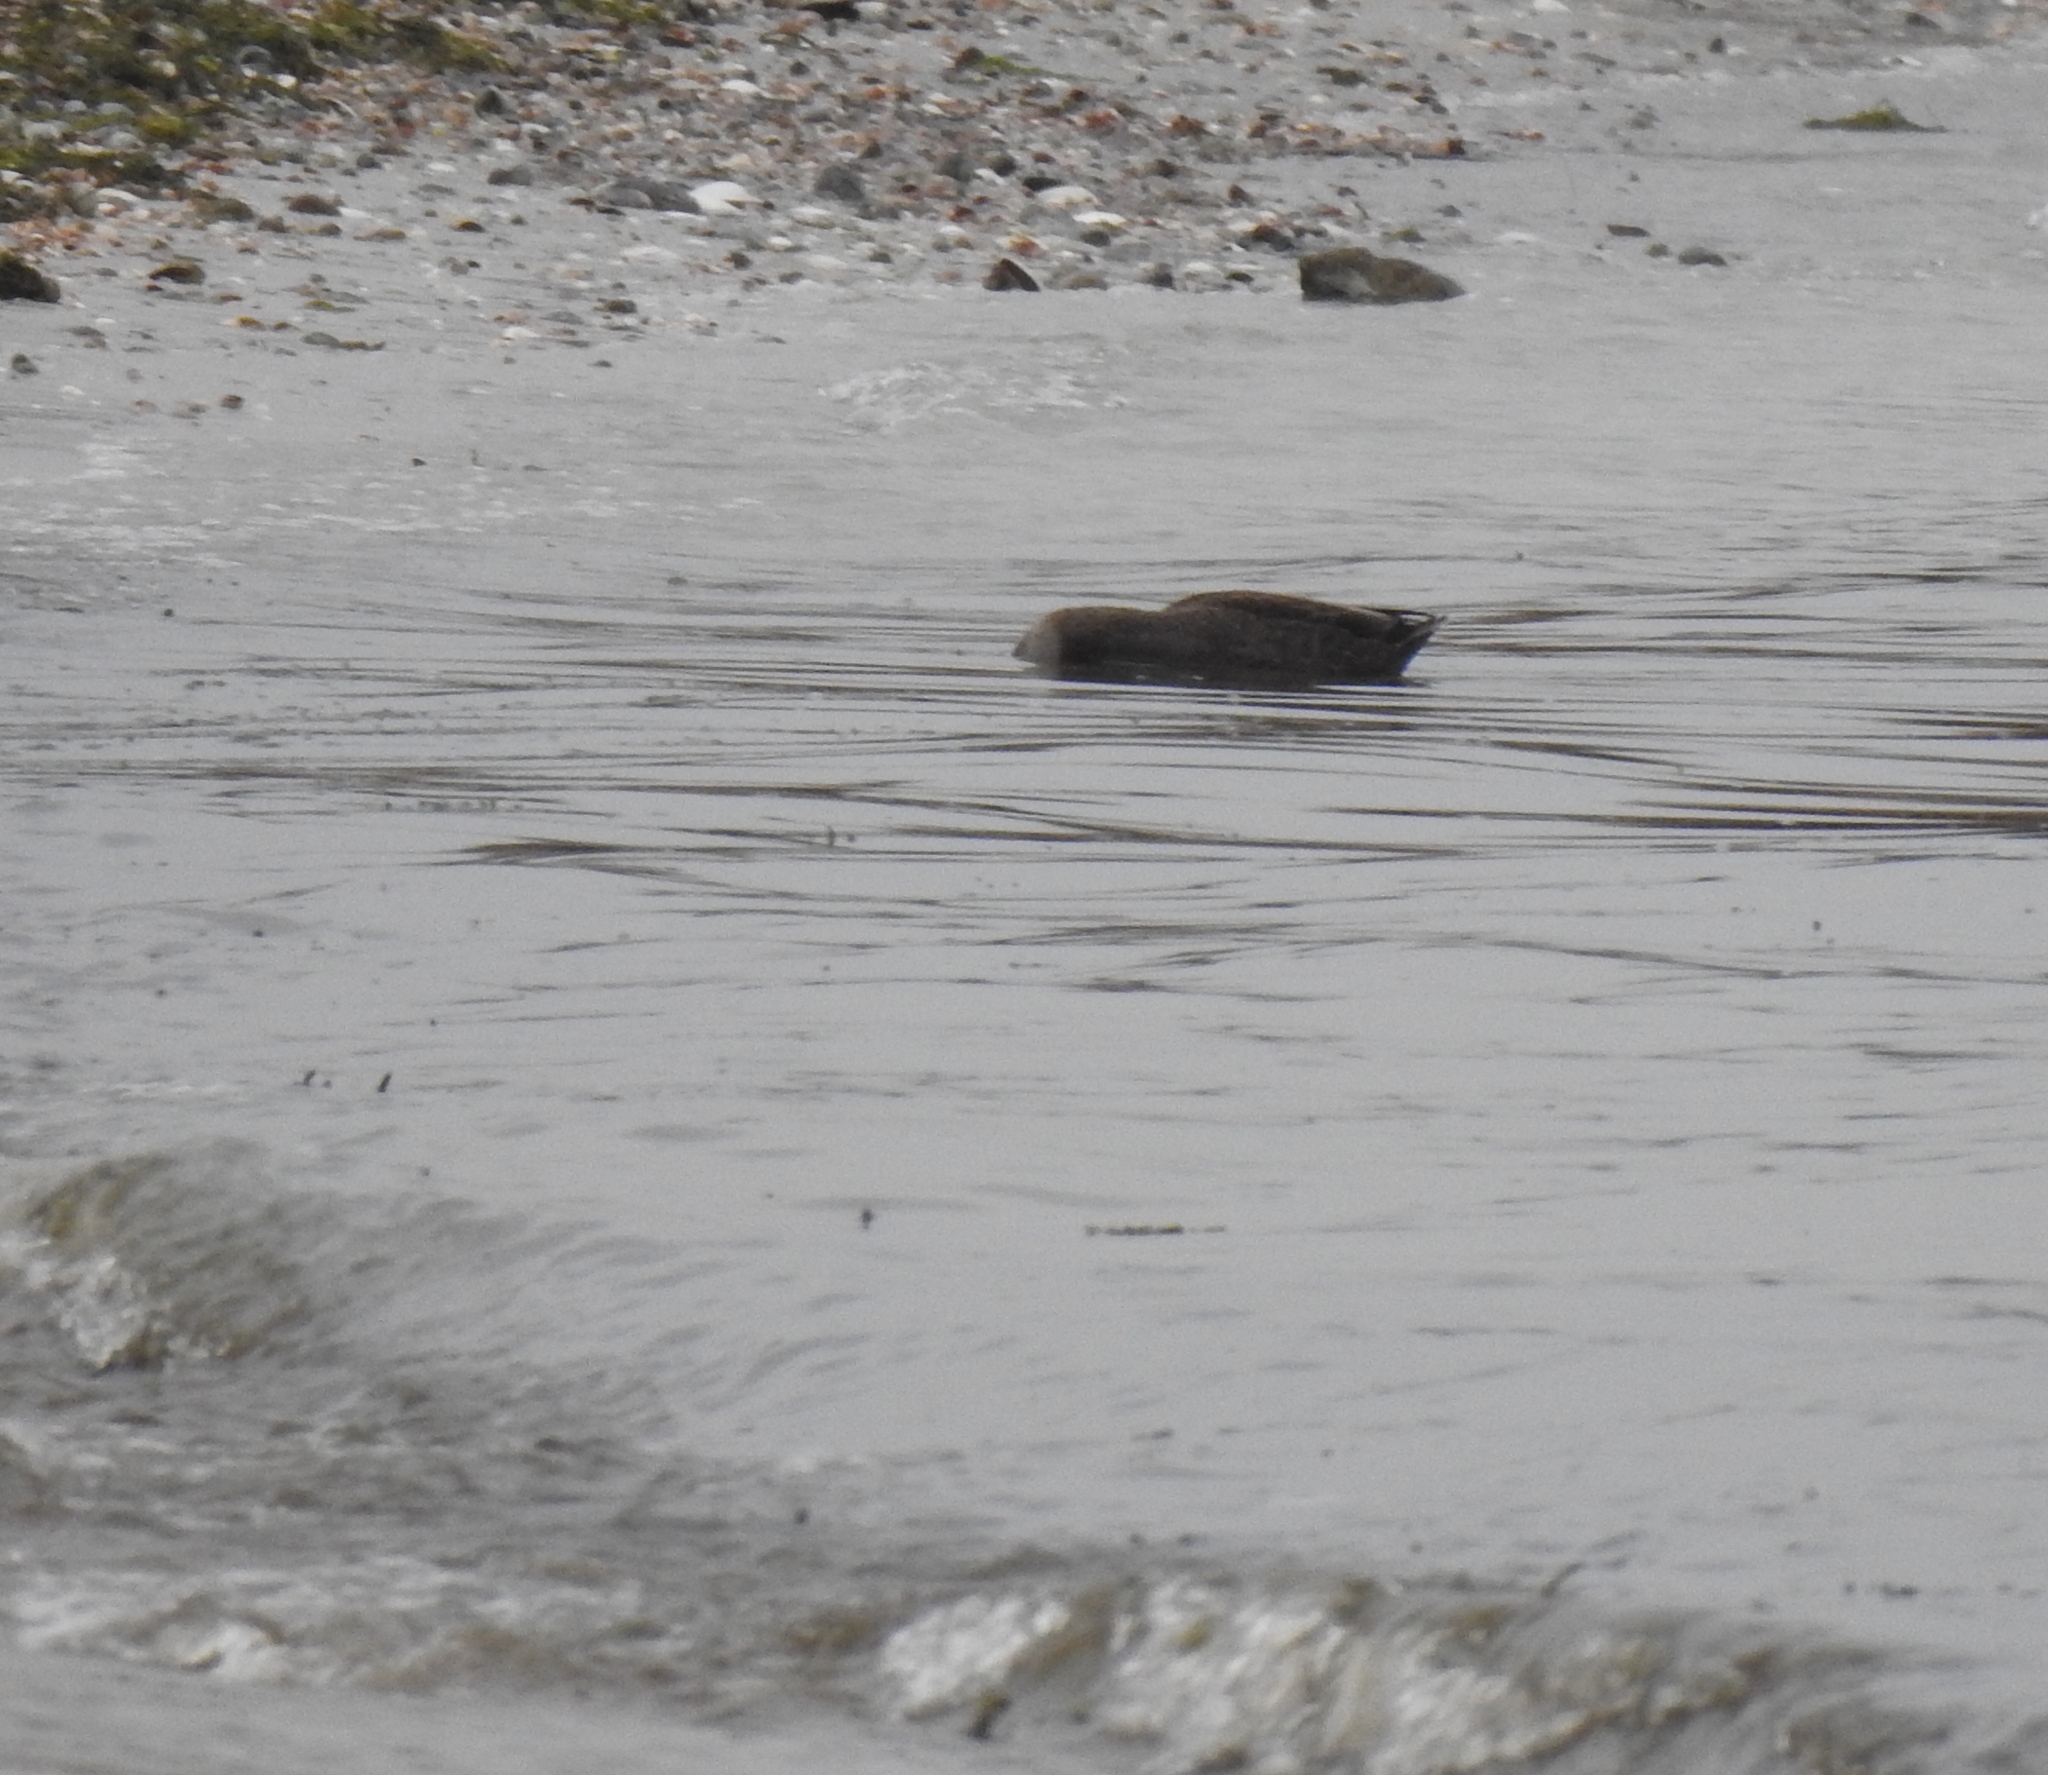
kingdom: Animalia
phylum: Chordata
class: Aves
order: Anseriformes
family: Anatidae
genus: Anas
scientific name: Anas rubripes
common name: American black duck
